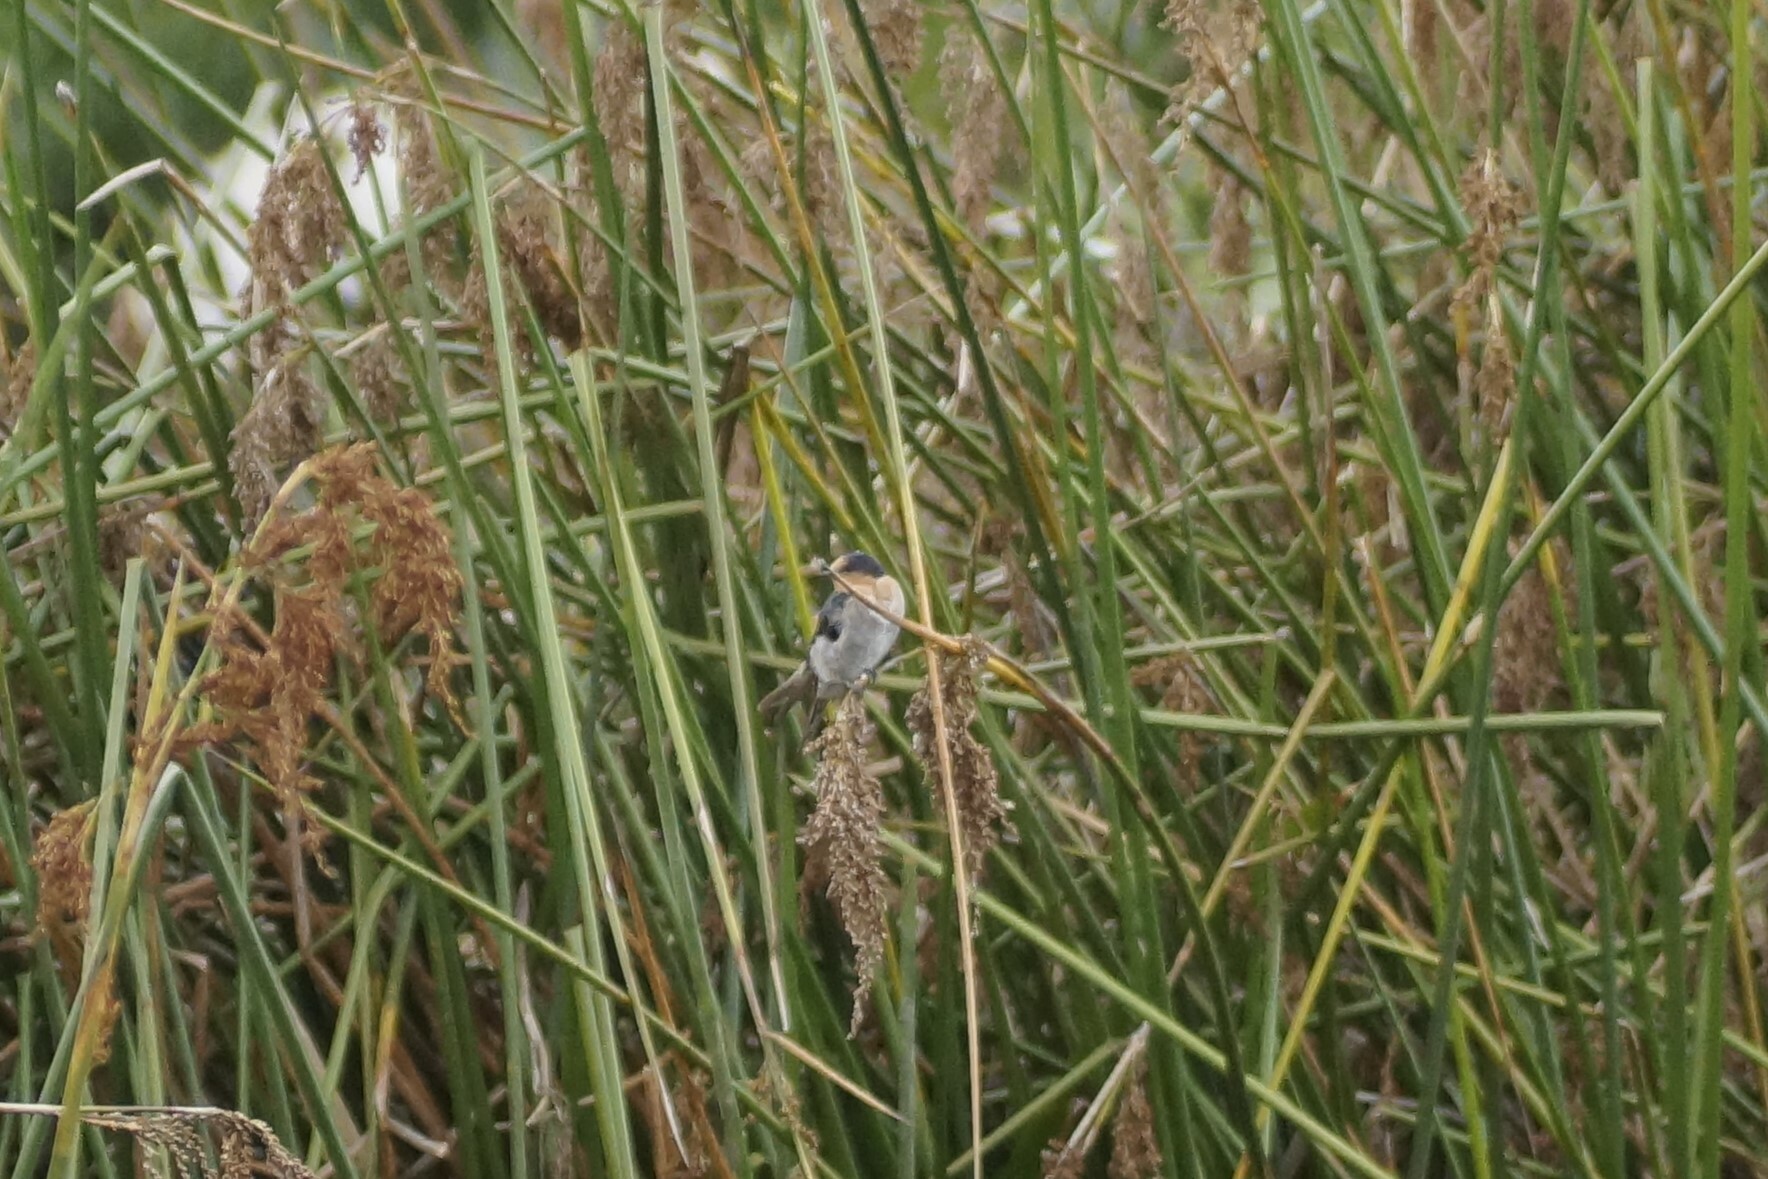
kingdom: Animalia
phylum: Chordata
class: Aves
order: Passeriformes
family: Hirundinidae
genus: Hirundo
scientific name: Hirundo neoxena
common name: Welcome swallow
